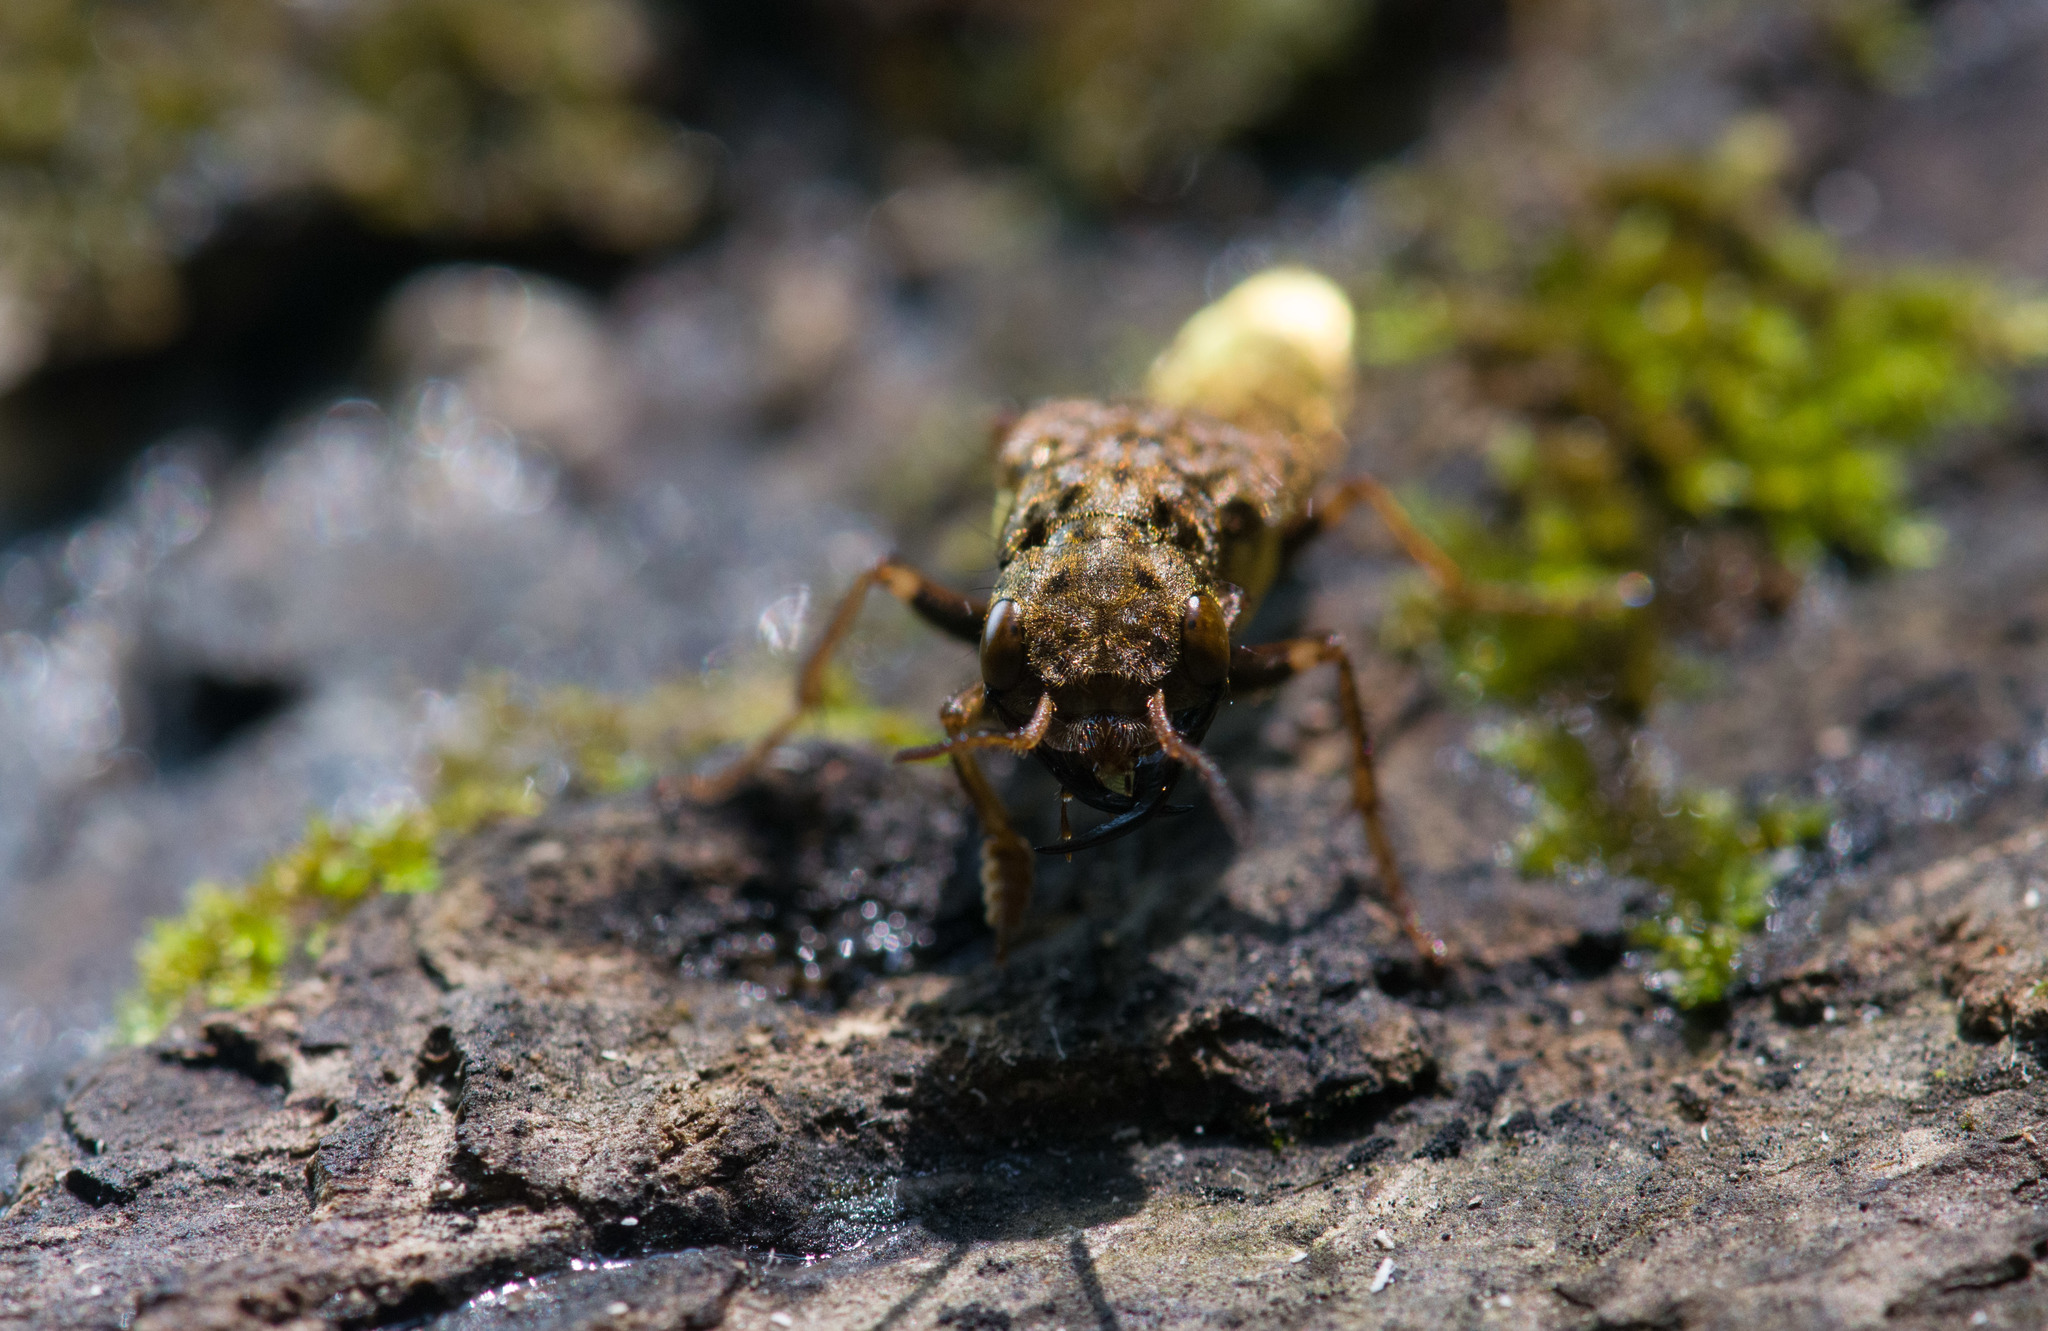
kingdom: Animalia
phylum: Arthropoda
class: Insecta
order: Coleoptera
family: Staphylinidae
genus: Ontholestes
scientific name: Ontholestes cingulatus
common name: Gold-and-brown rove beetle
